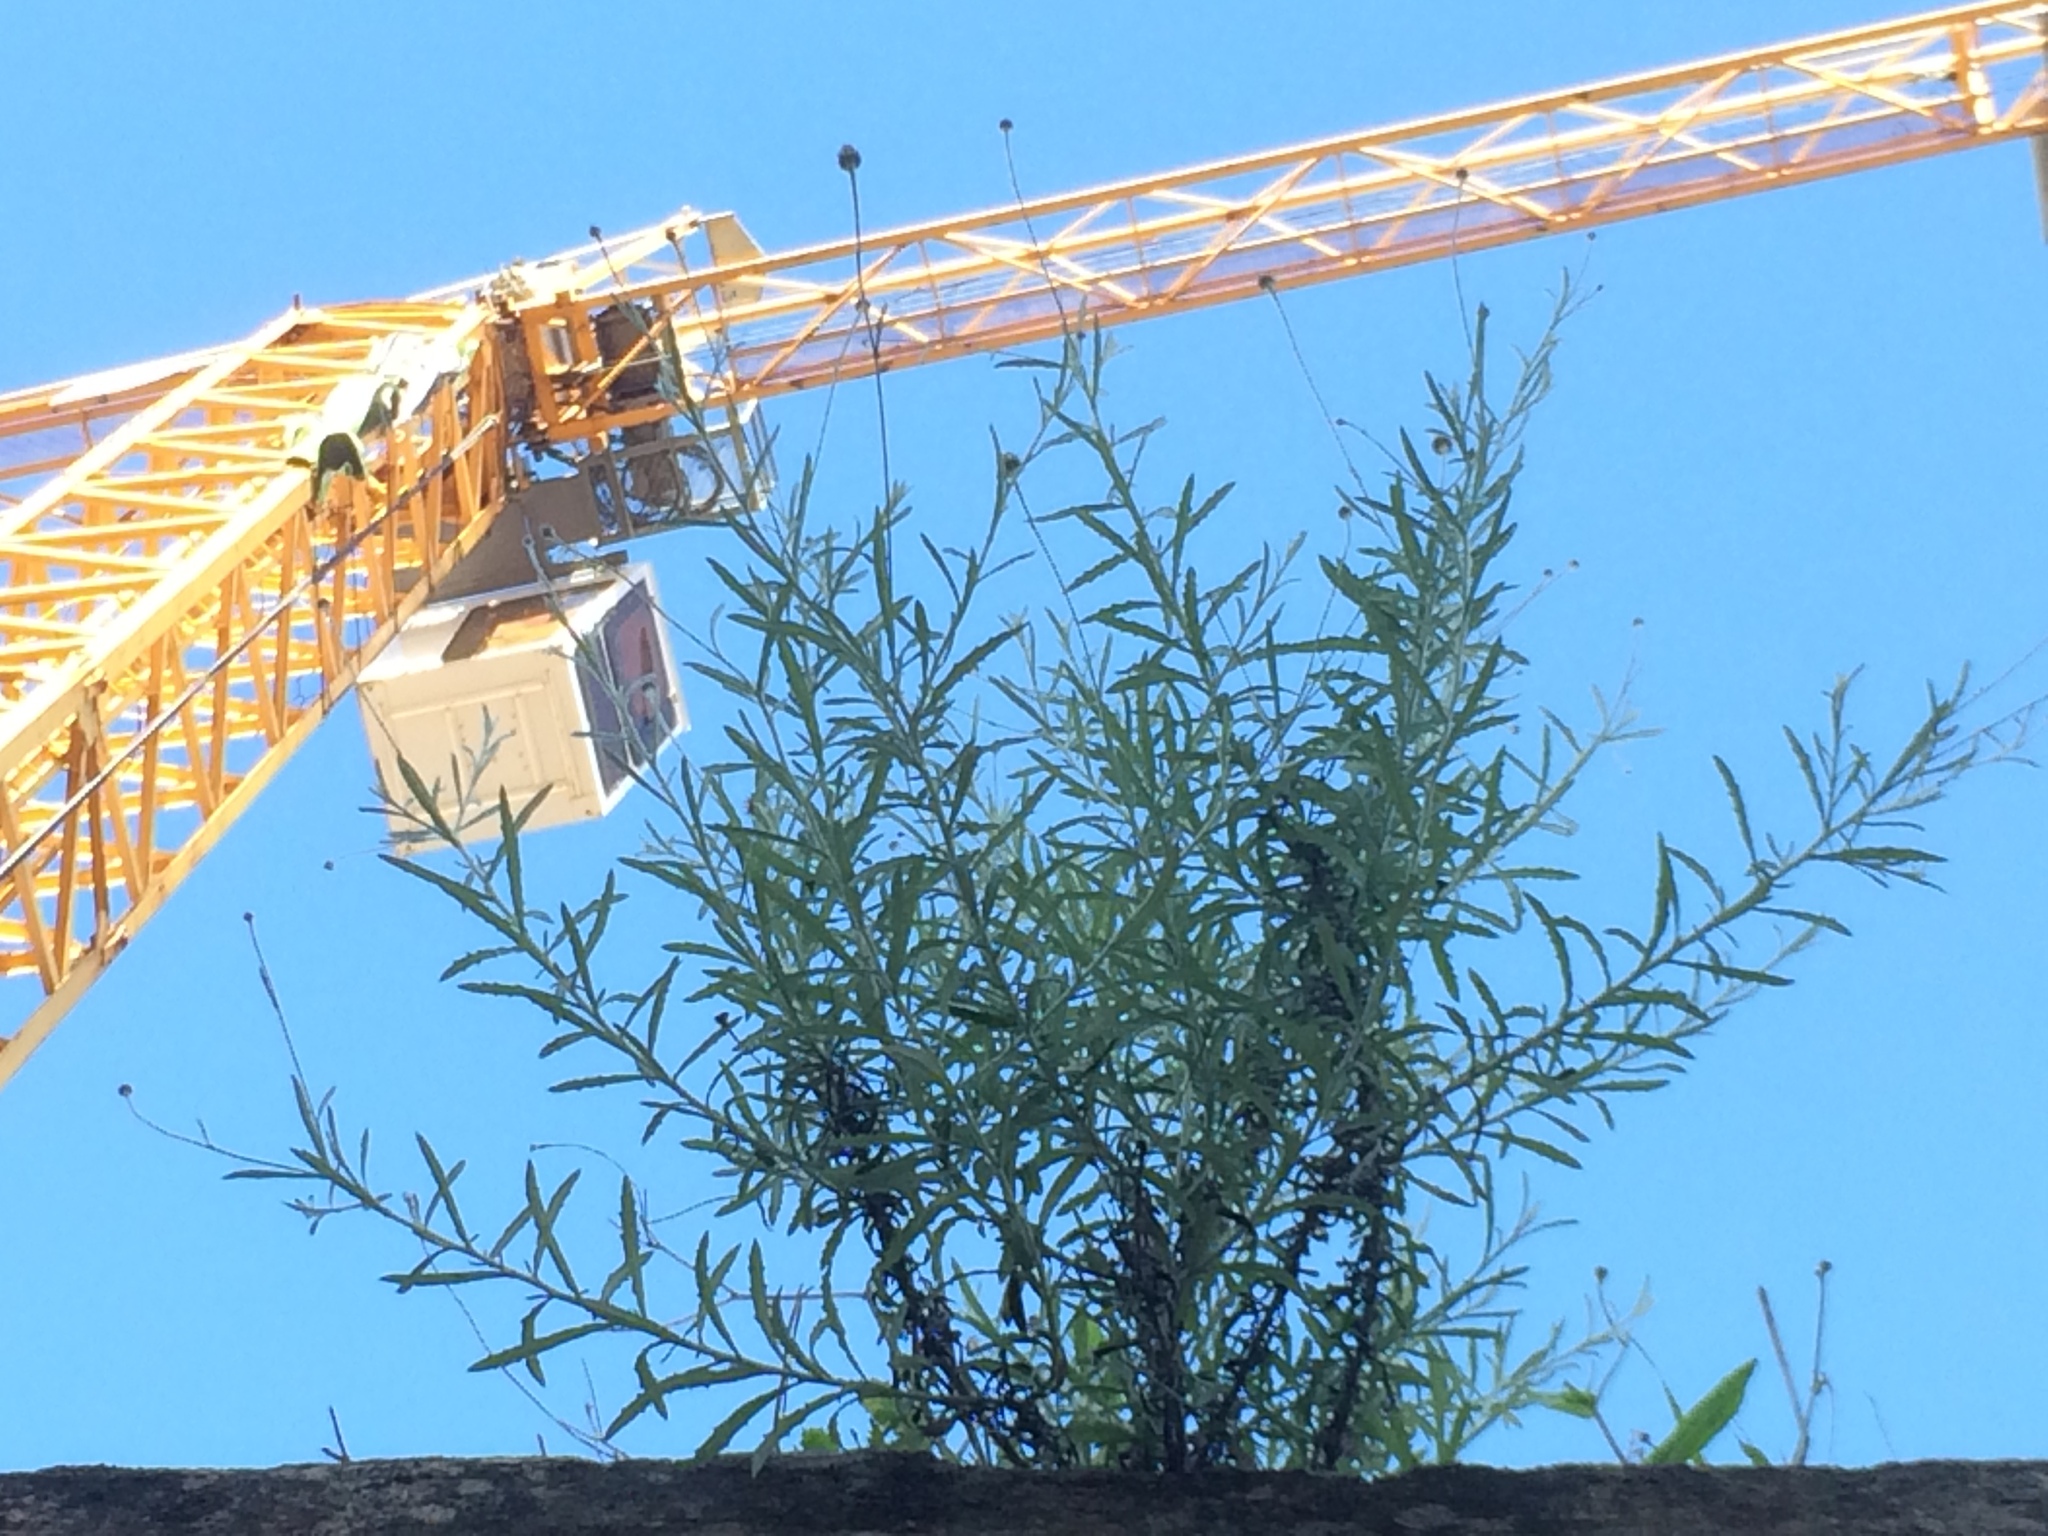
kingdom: Plantae
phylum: Tracheophyta
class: Magnoliopsida
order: Asterales
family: Asteraceae
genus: Phagnalon
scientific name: Phagnalon saxatile
